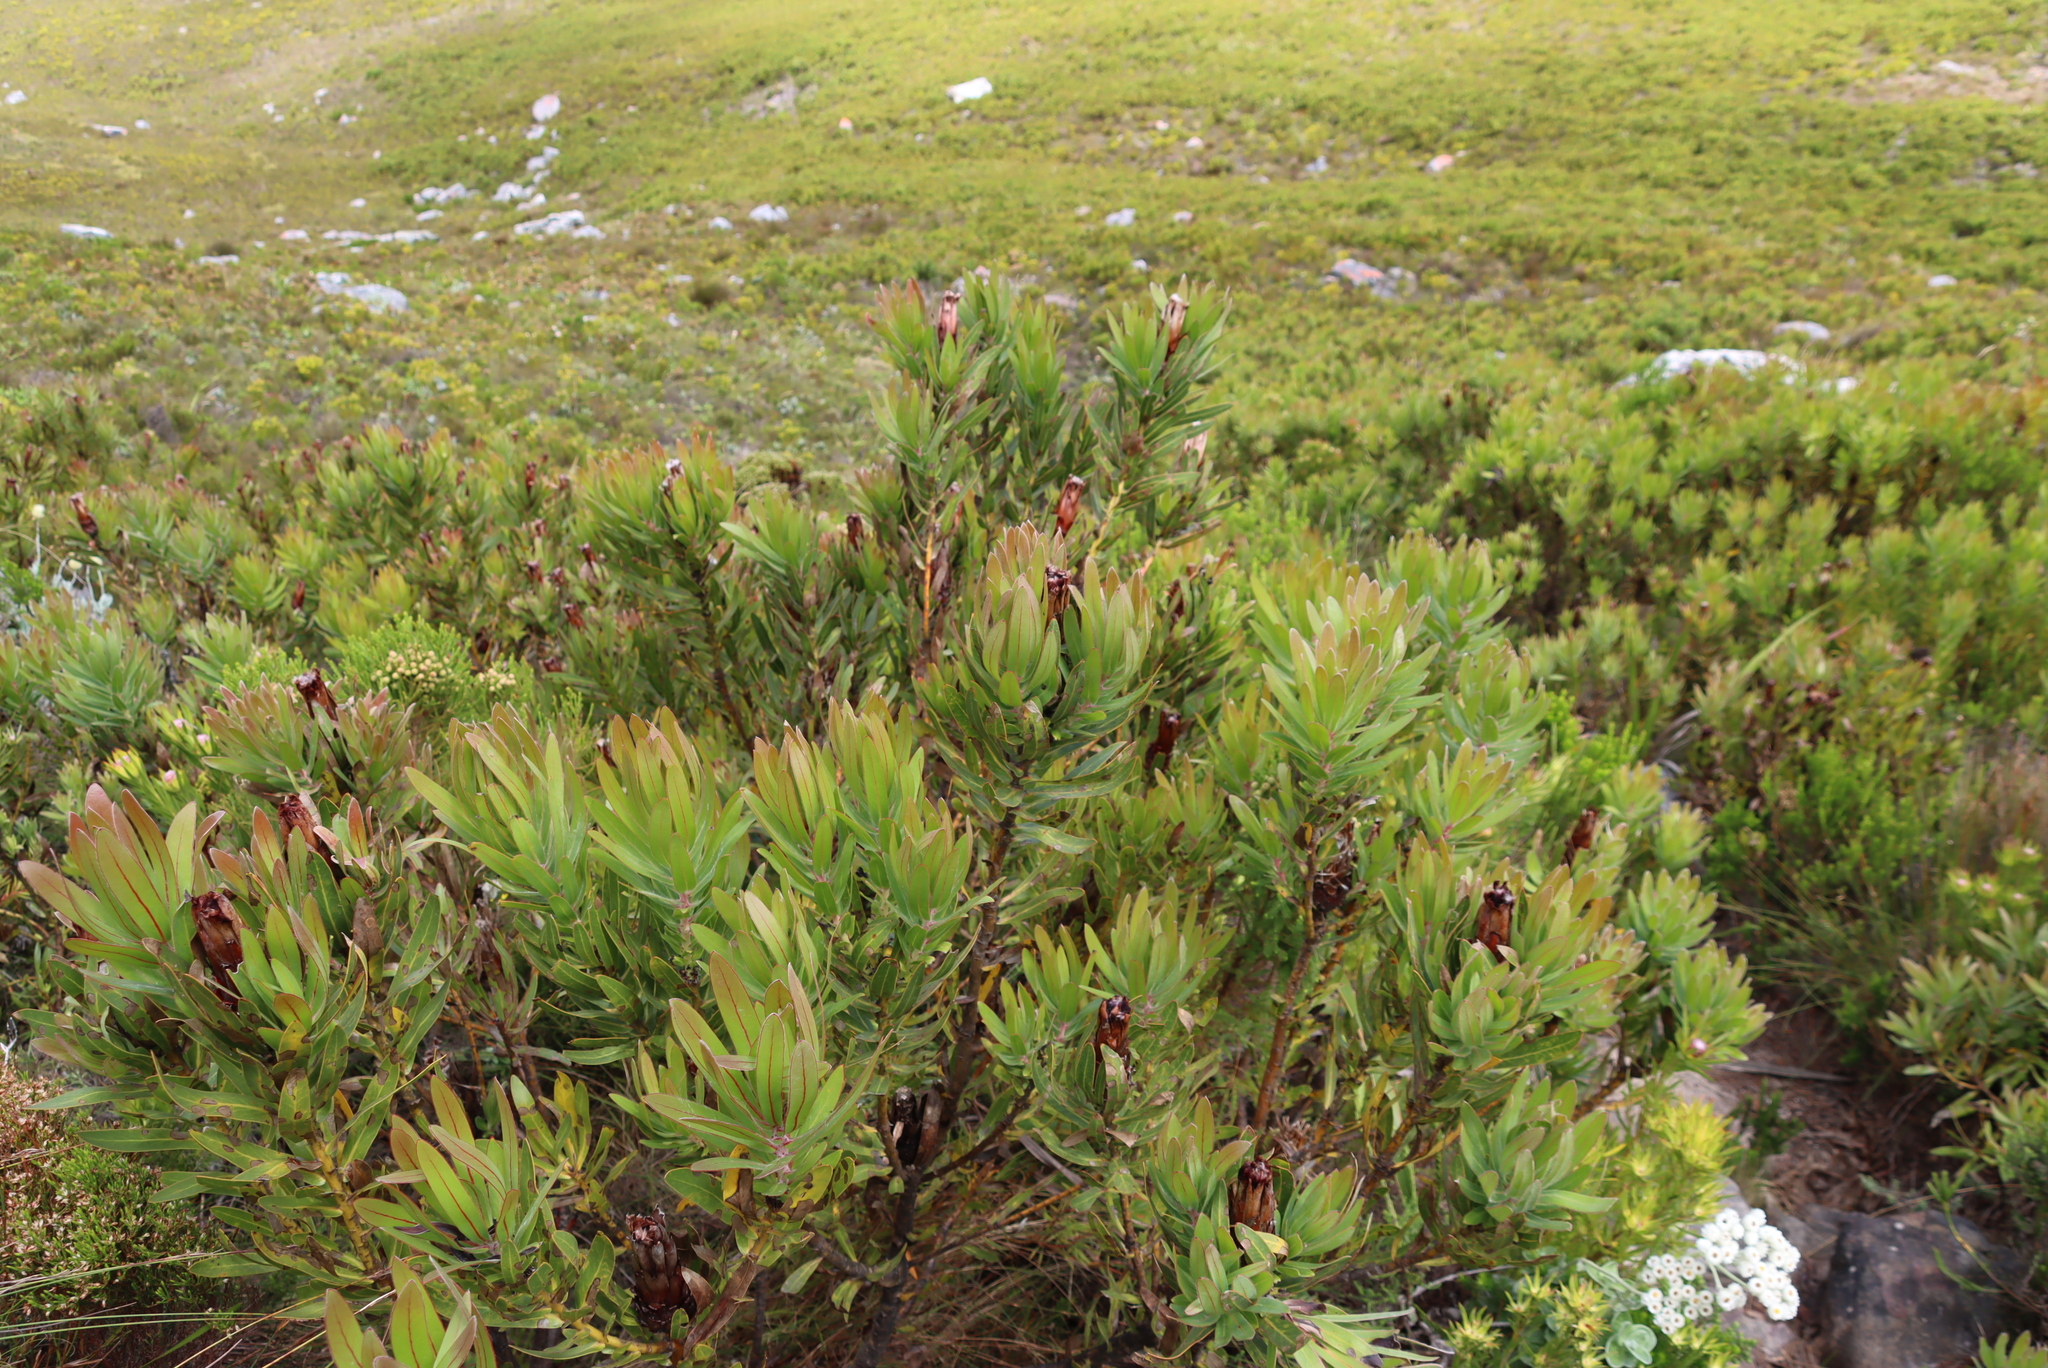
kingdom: Plantae
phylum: Tracheophyta
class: Magnoliopsida
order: Proteales
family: Proteaceae
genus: Protea
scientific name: Protea lepidocarpodendron
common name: Black-bearded protea
